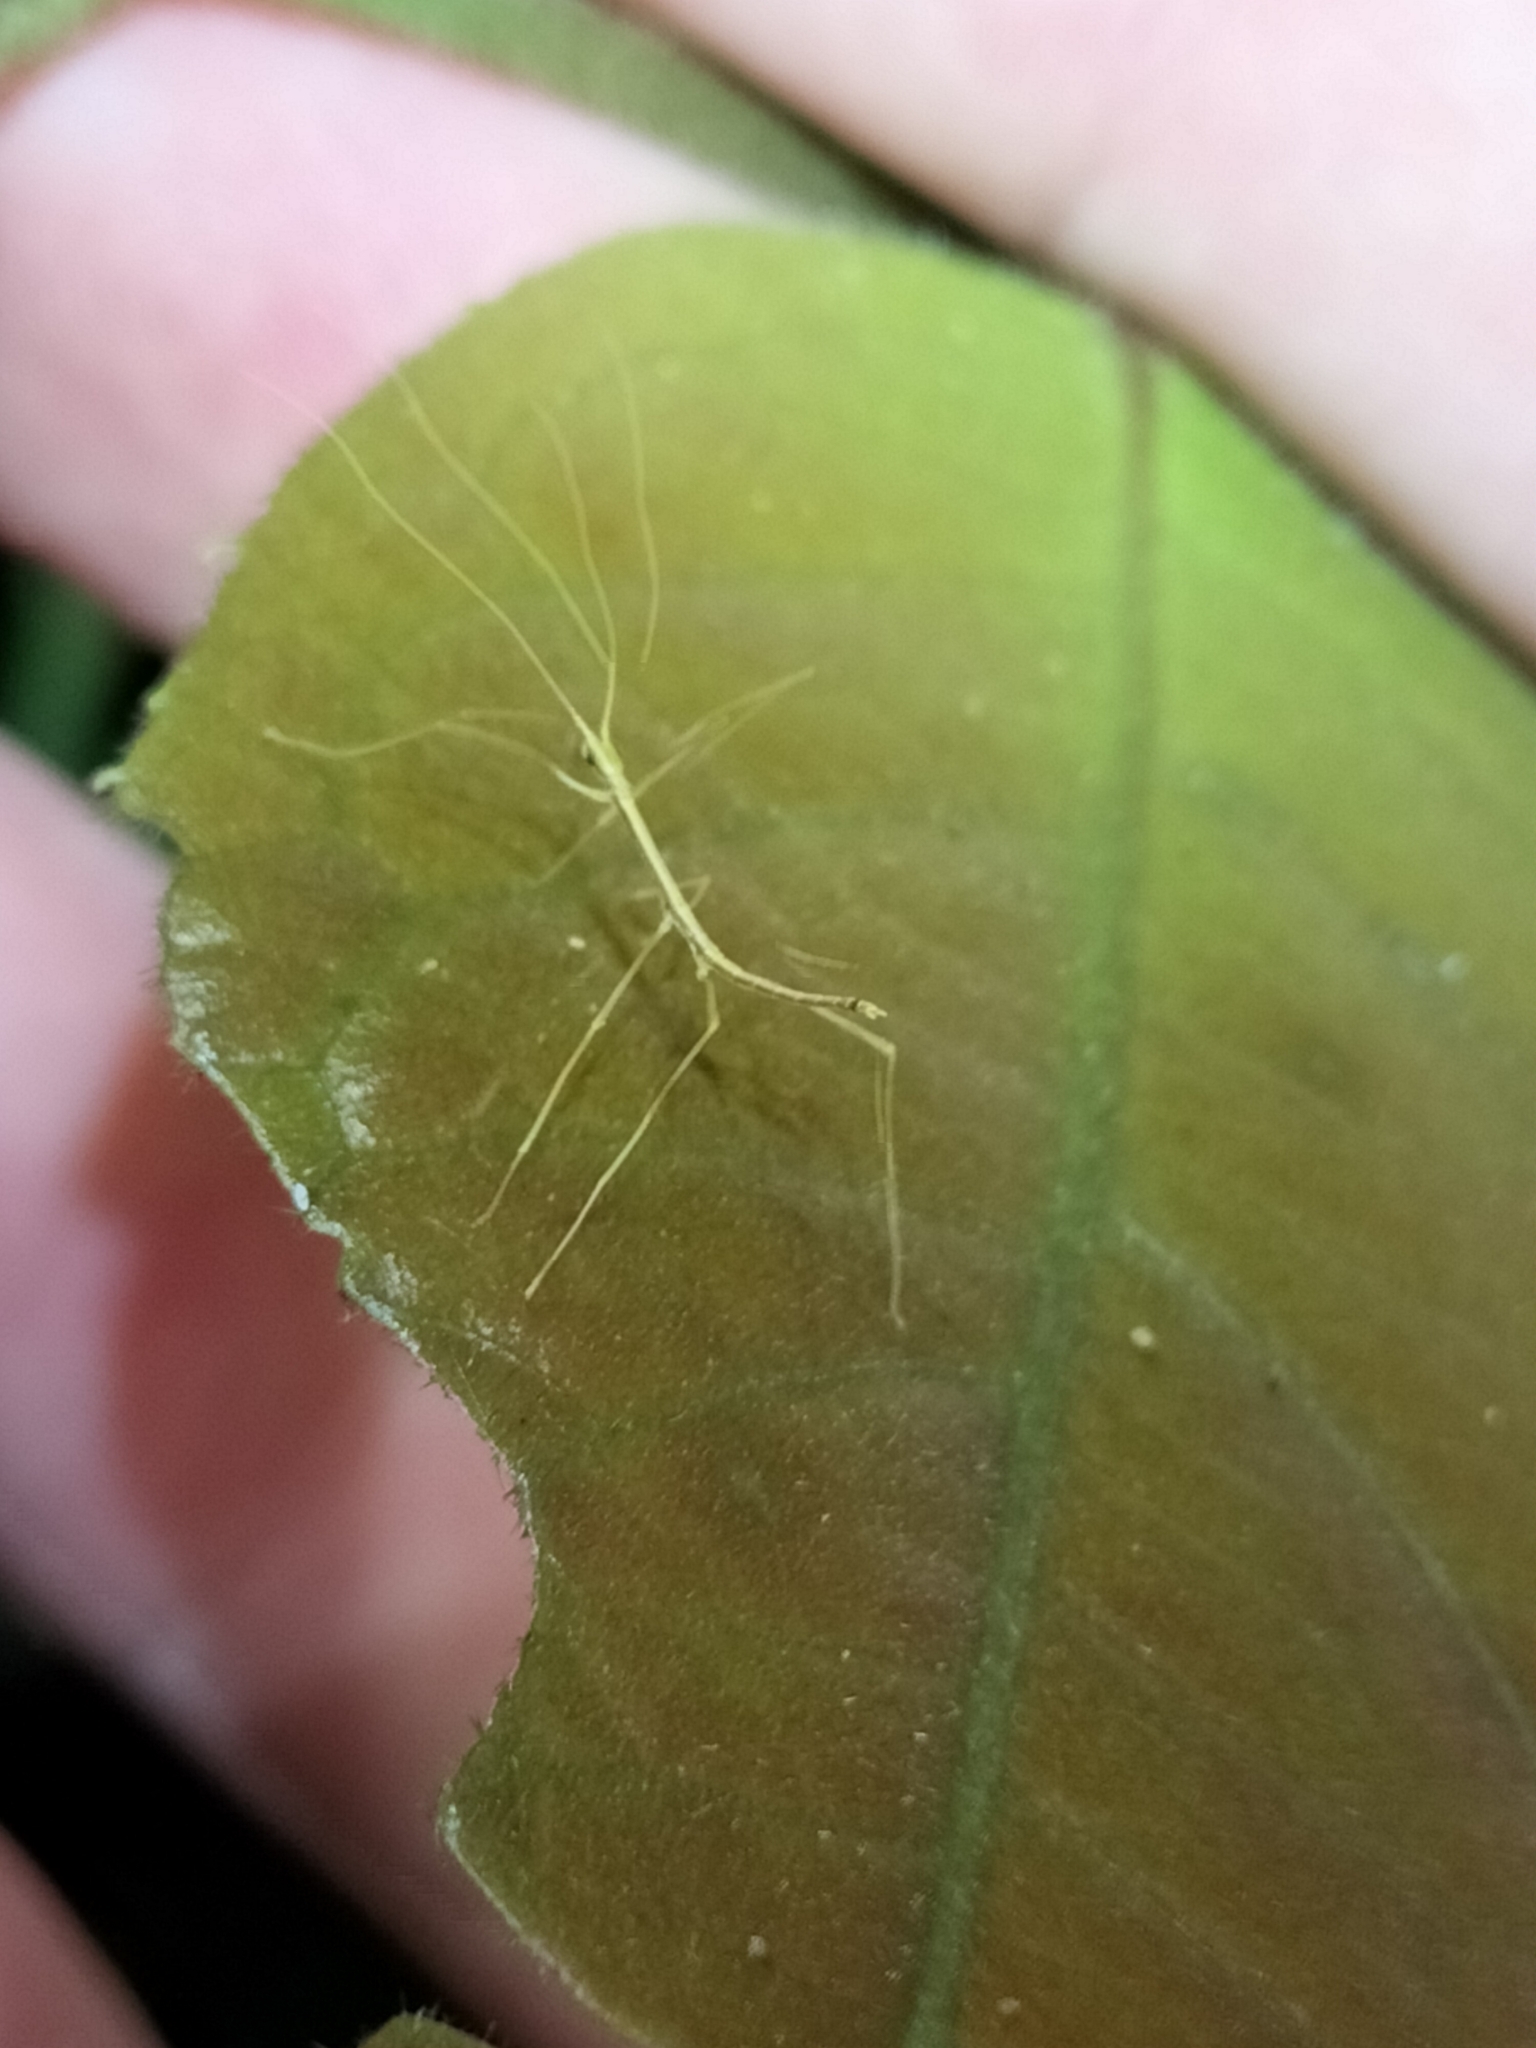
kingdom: Animalia
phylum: Arthropoda
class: Insecta
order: Phasmida
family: Lonchodidae
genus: Scionecra
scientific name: Scionecra queenslandica
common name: Queensland scionecra stick-insect
